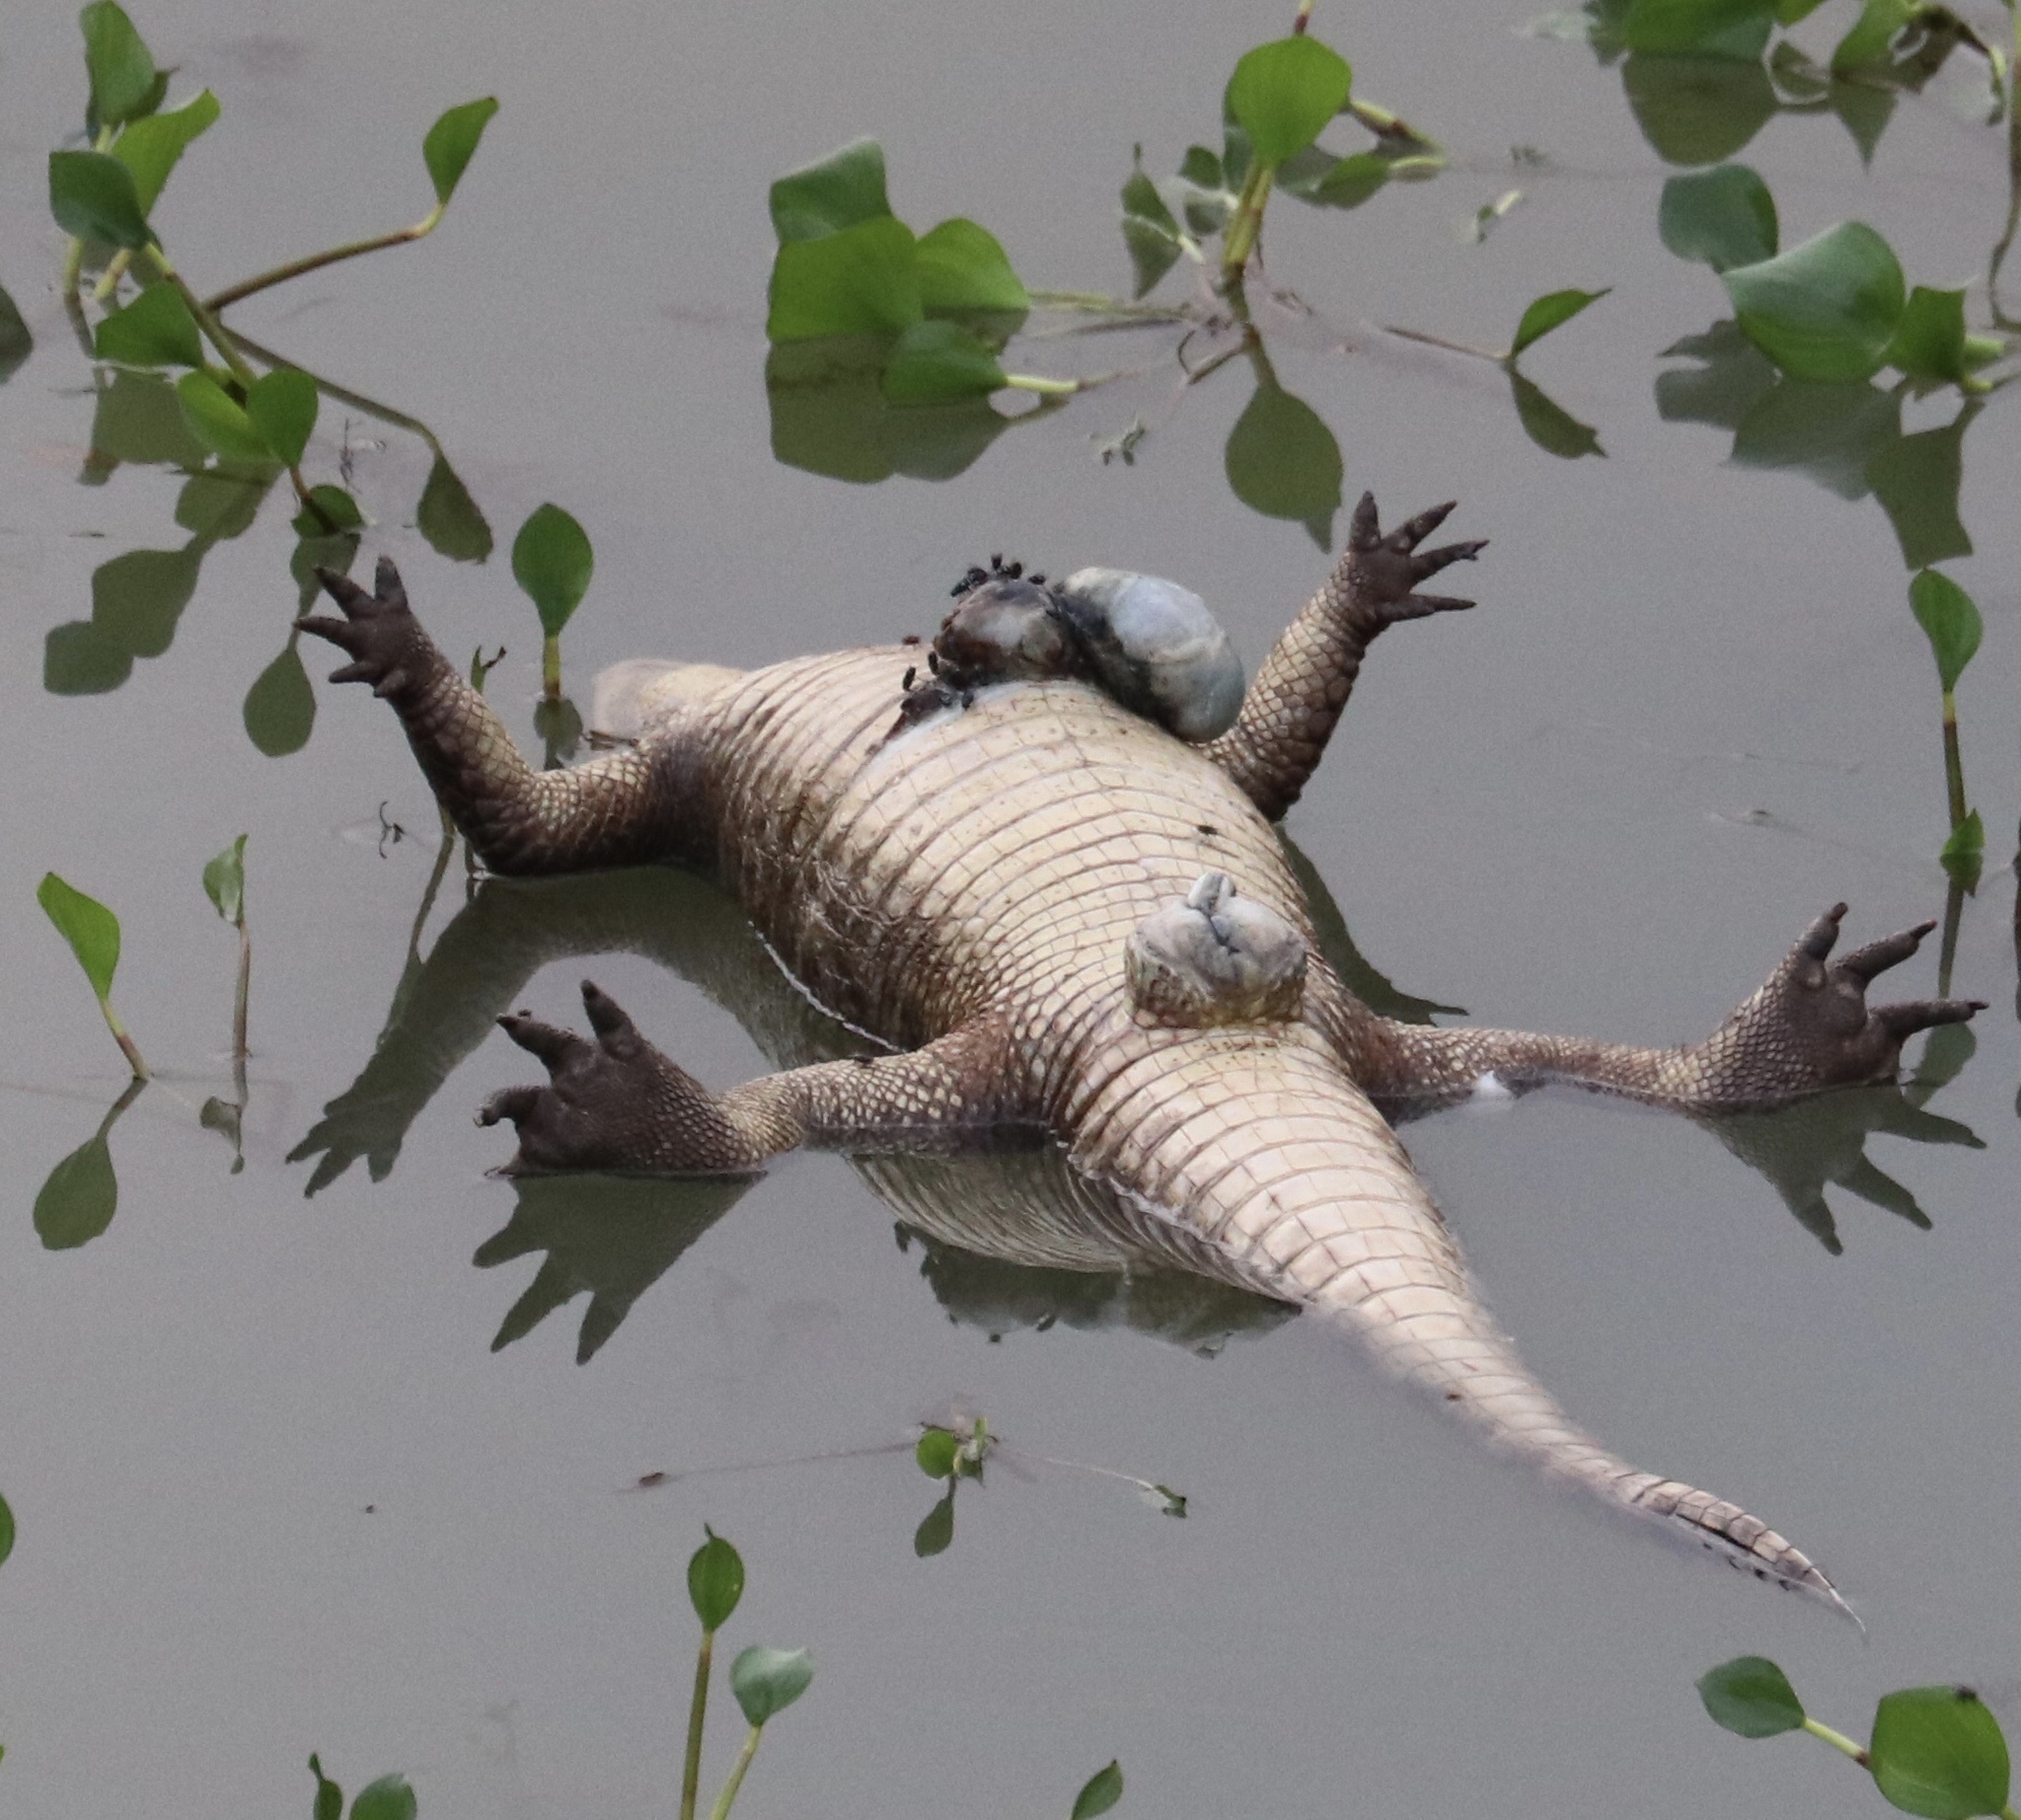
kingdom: Animalia
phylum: Chordata
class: Crocodylia
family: Alligatoridae
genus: Caiman
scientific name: Caiman crocodilus
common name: Common caiman
